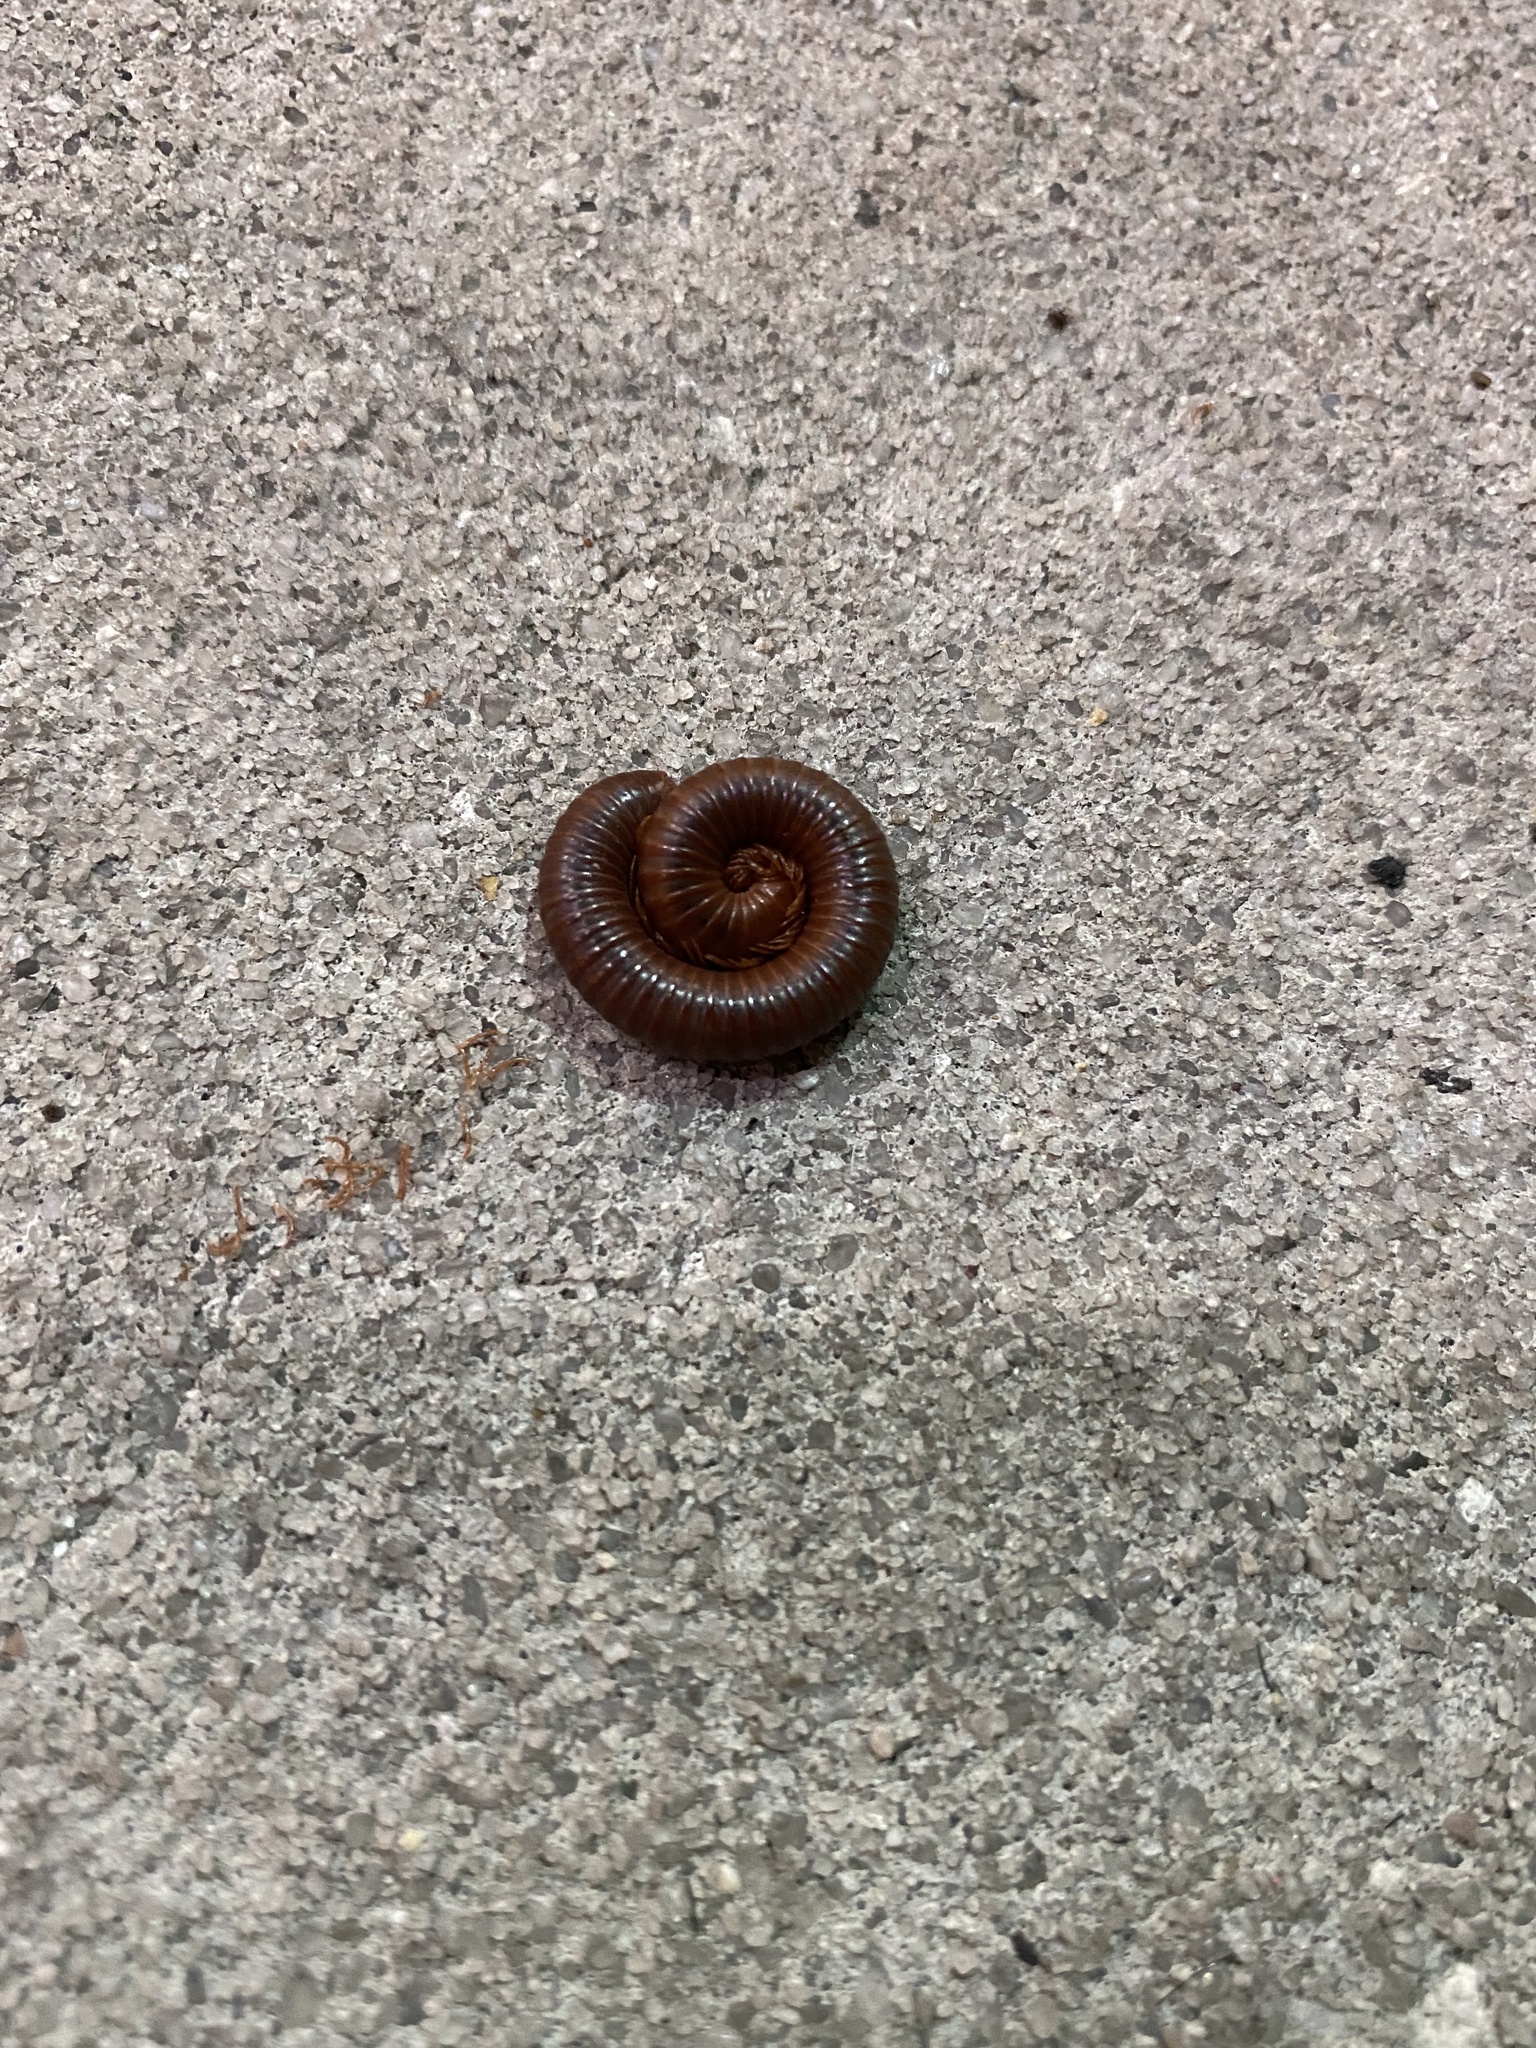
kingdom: Animalia
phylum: Arthropoda
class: Diplopoda
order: Spirobolida
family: Pachybolidae
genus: Trigoniulus
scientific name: Trigoniulus corallinus
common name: Millipede
